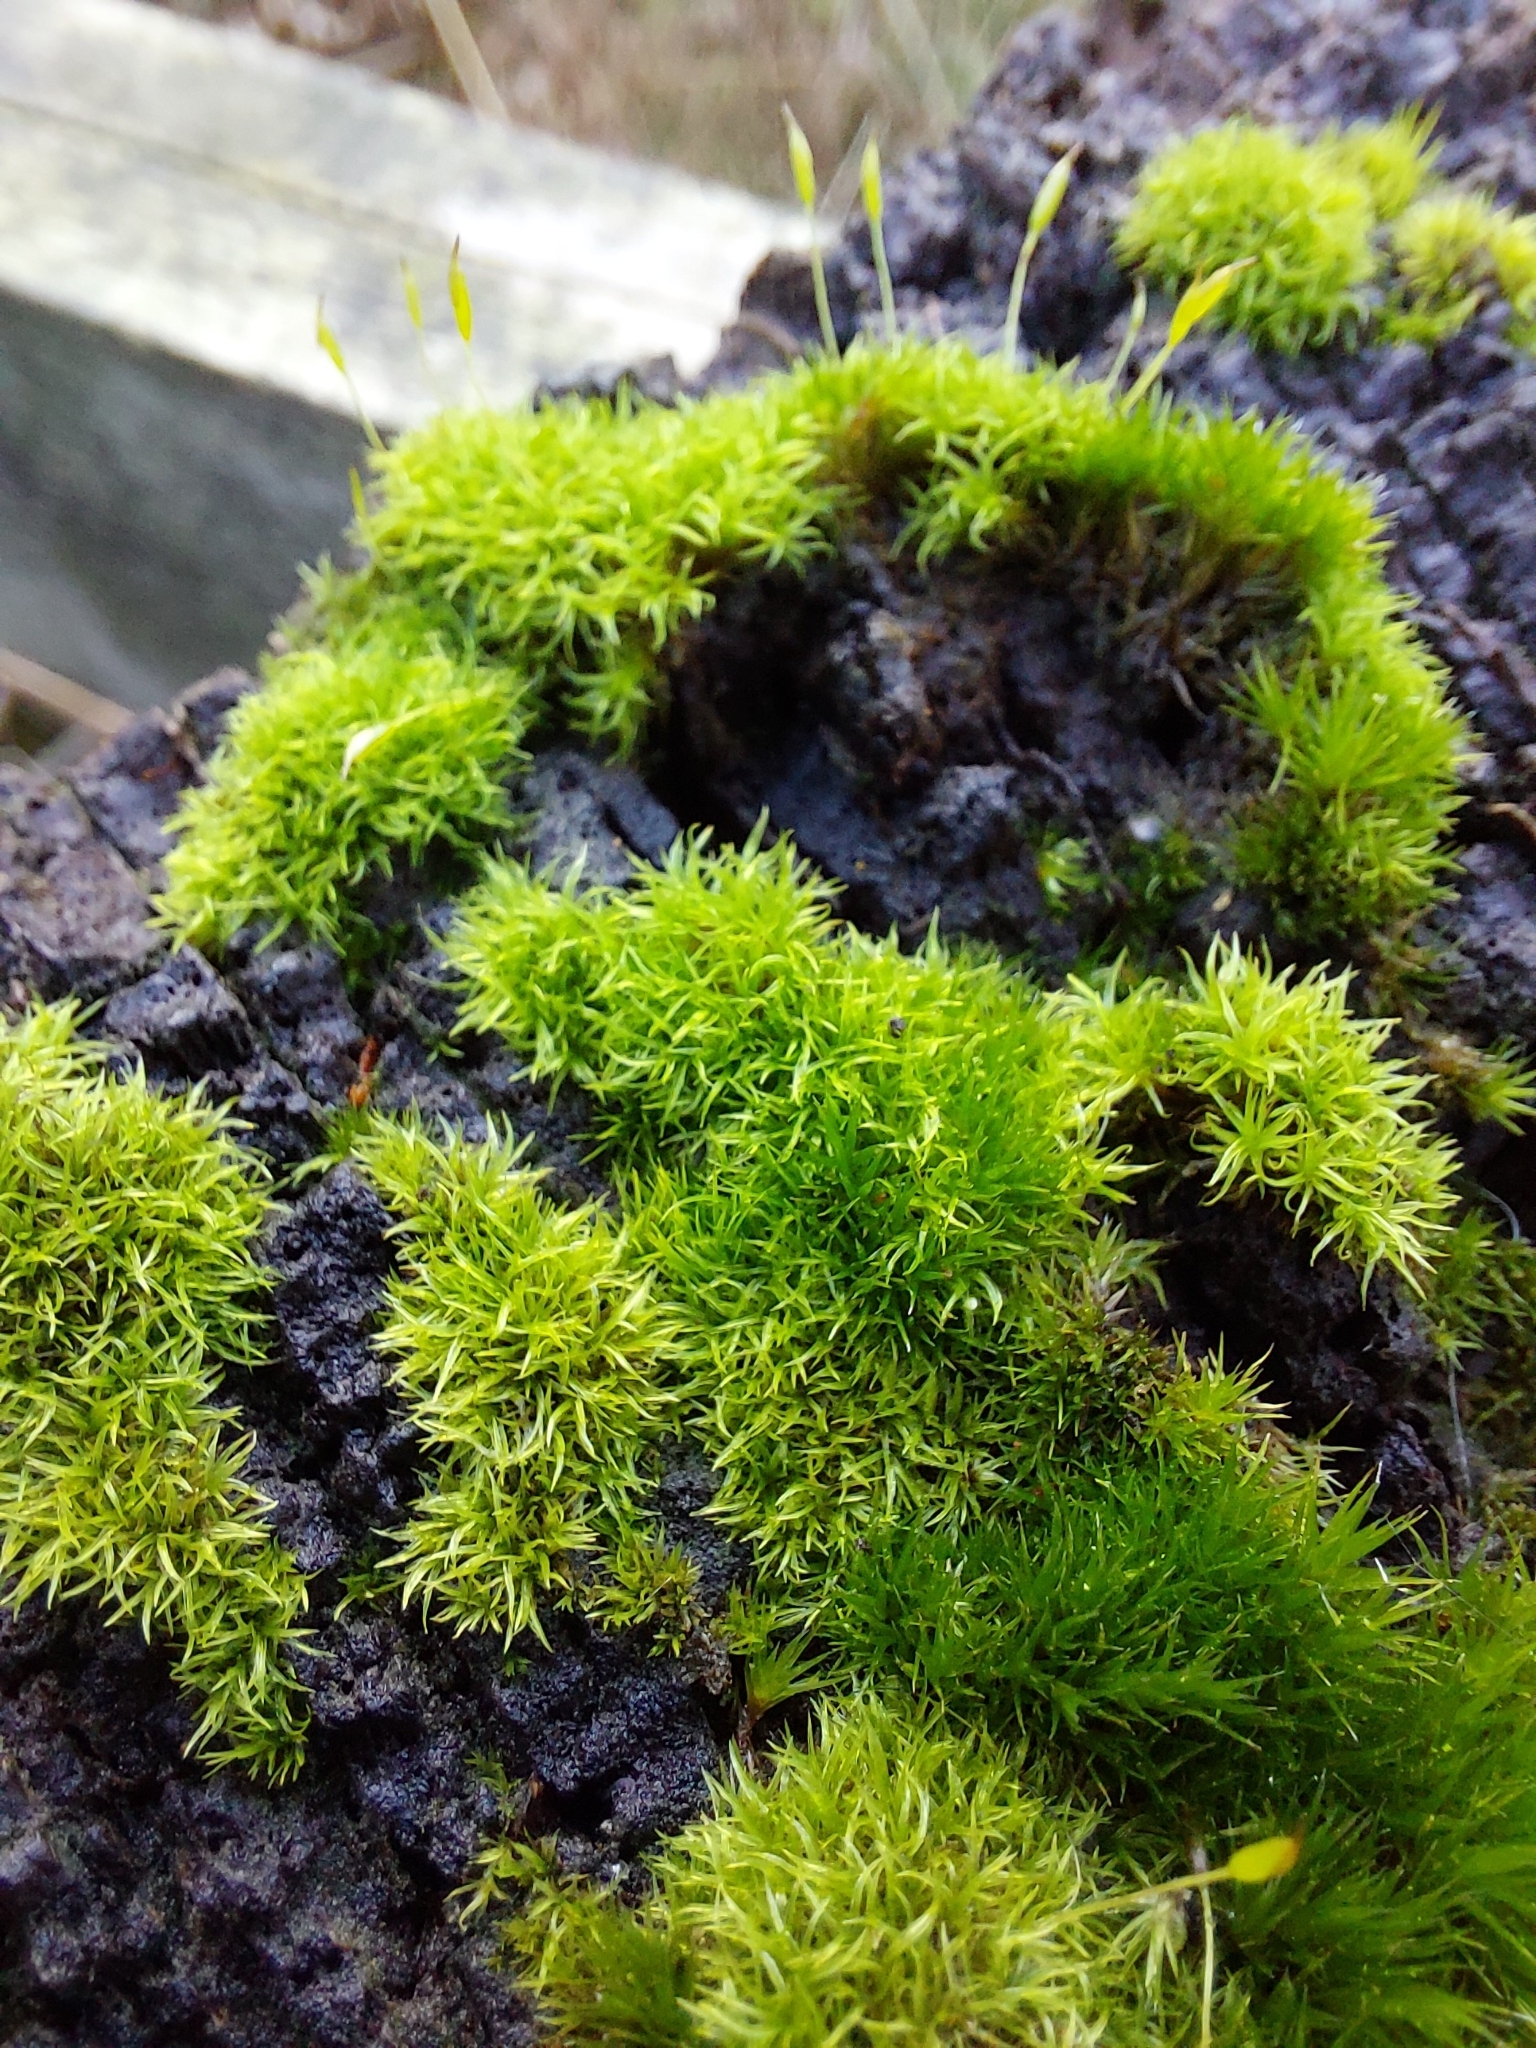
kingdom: Plantae
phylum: Bryophyta
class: Bryopsida
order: Dicranales
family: Rhabdoweisiaceae
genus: Dicranoweisia
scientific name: Dicranoweisia cirrata
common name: Common pincushion
